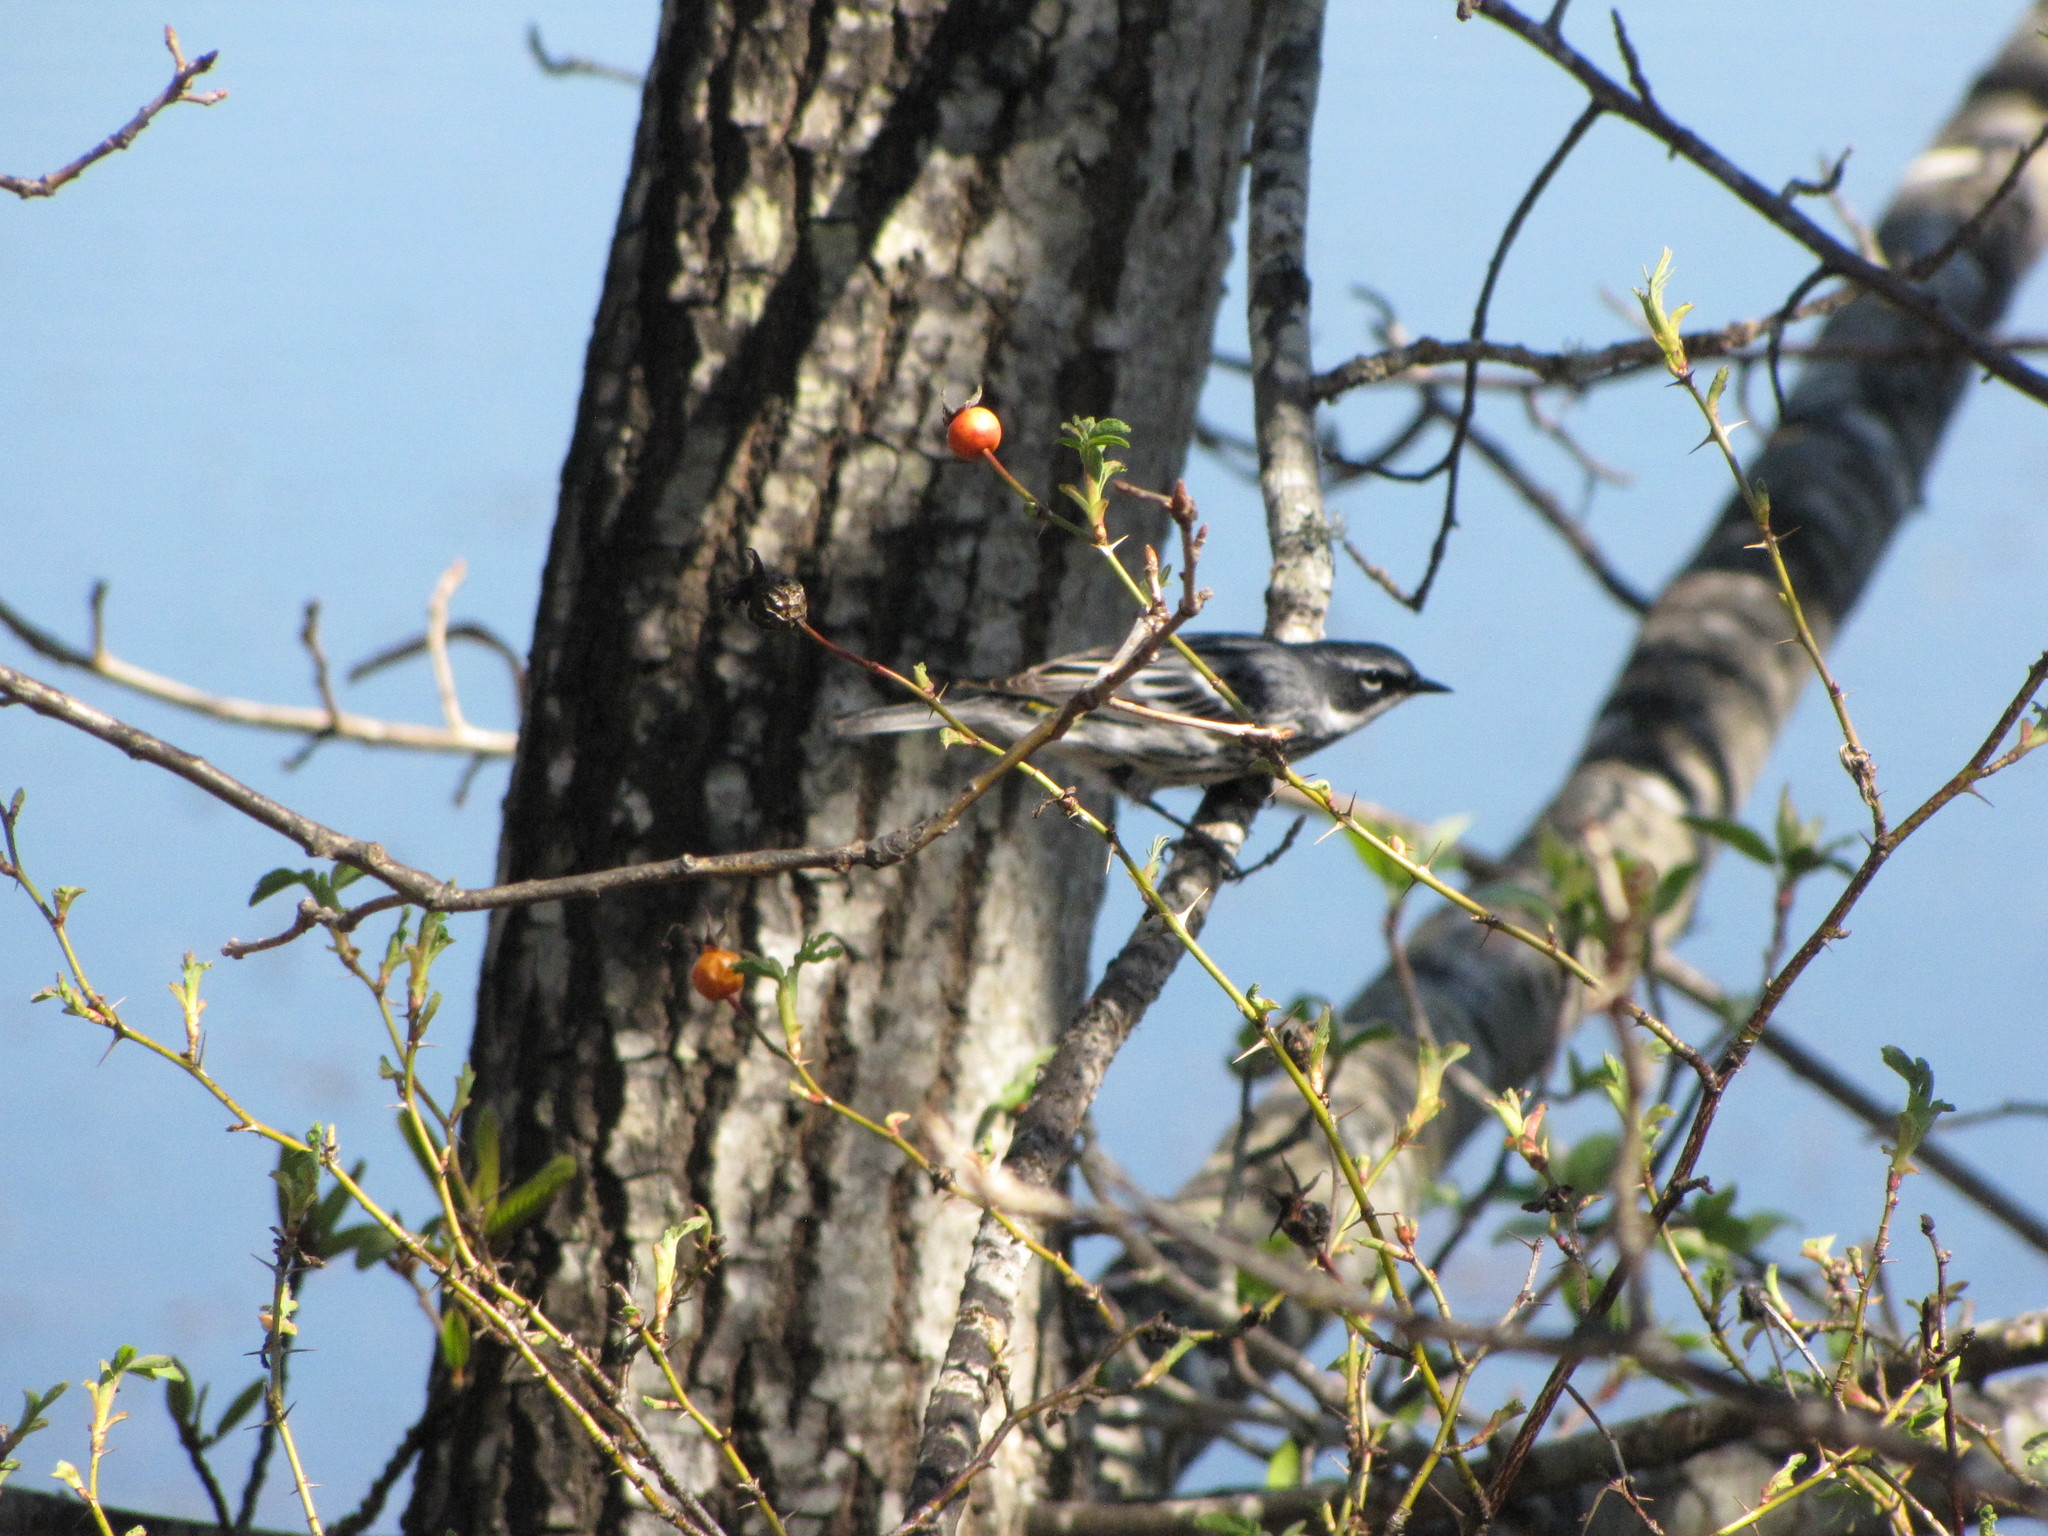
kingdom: Animalia
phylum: Chordata
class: Aves
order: Passeriformes
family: Parulidae
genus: Setophaga
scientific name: Setophaga coronata
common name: Myrtle warbler
